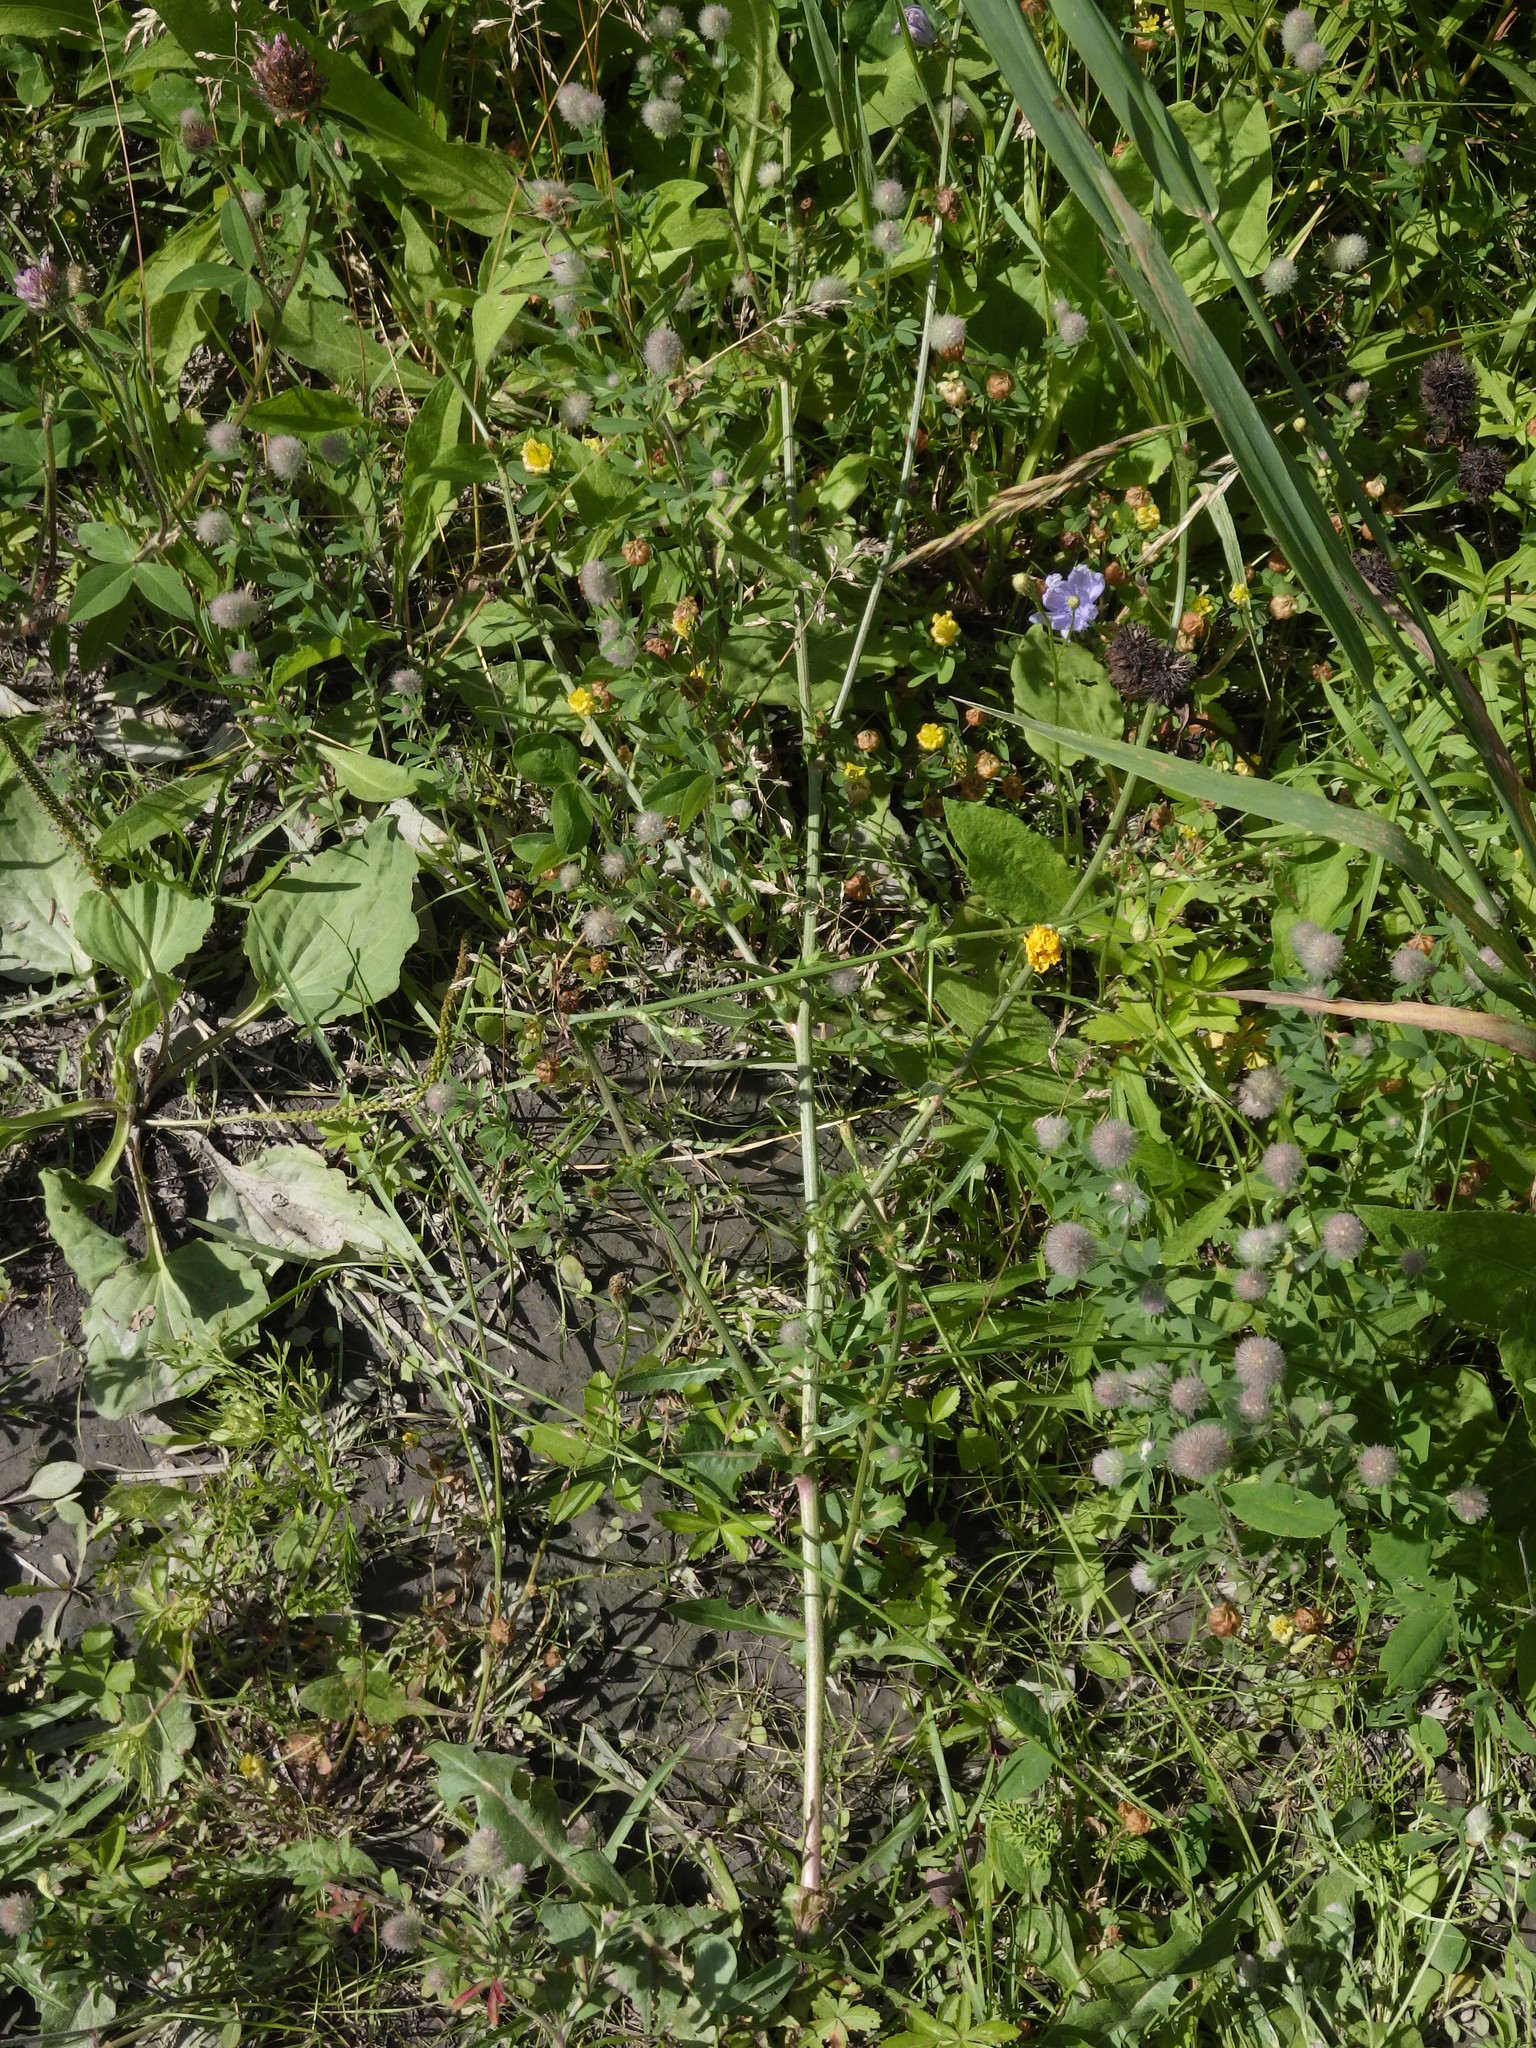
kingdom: Plantae
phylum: Tracheophyta
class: Magnoliopsida
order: Asterales
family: Asteraceae
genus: Cichorium
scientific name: Cichorium intybus
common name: Chicory
